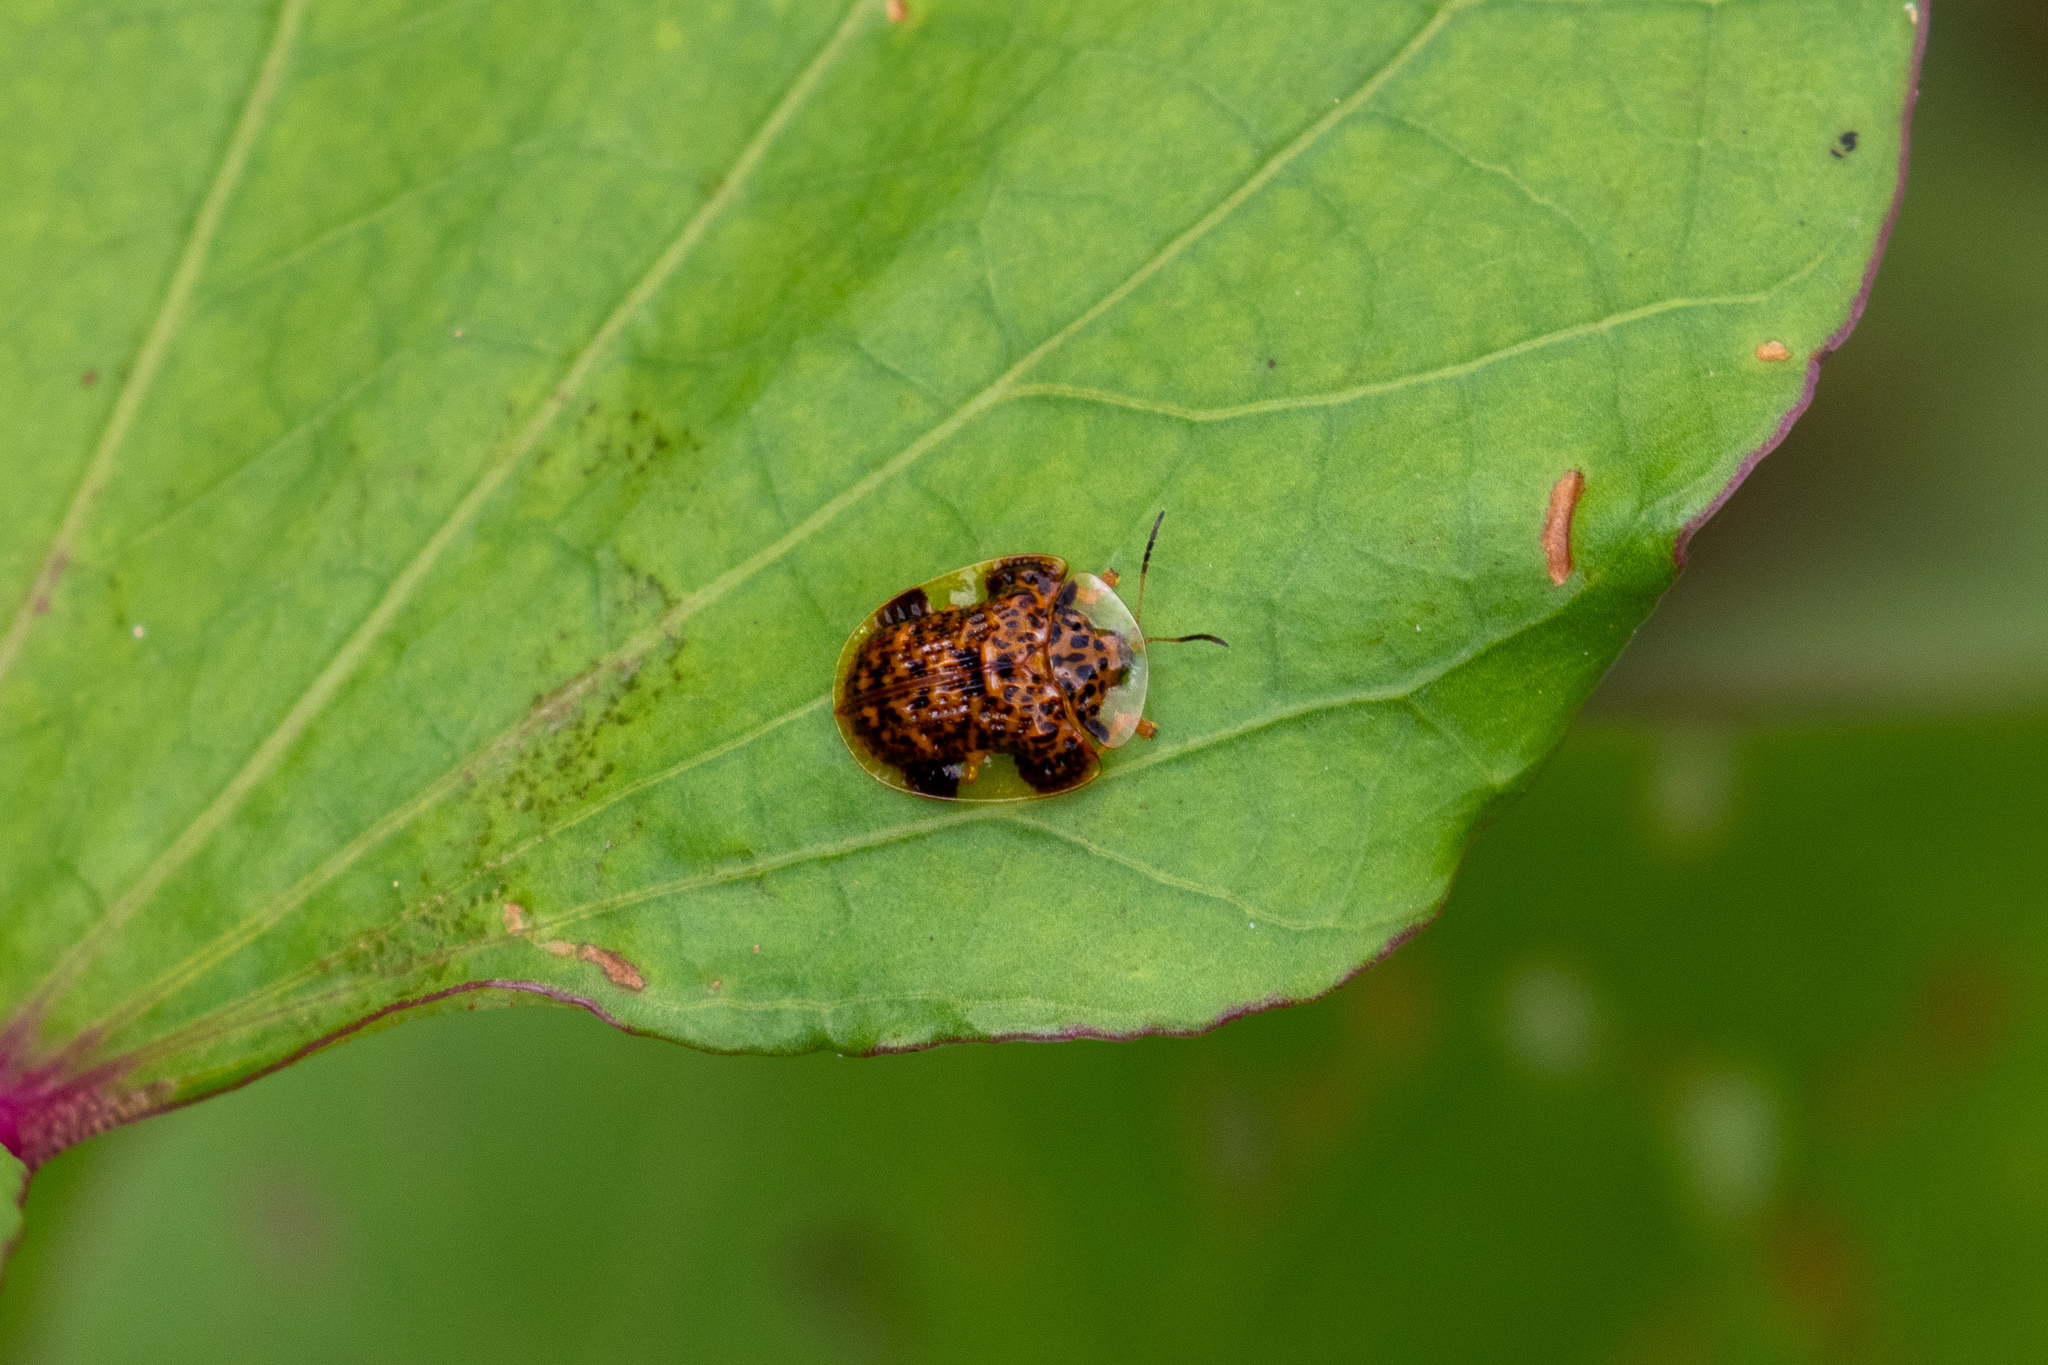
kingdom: Animalia
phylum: Arthropoda
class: Insecta
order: Coleoptera
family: Chrysomelidae
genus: Microctenochira
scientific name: Microctenochira aciculata
